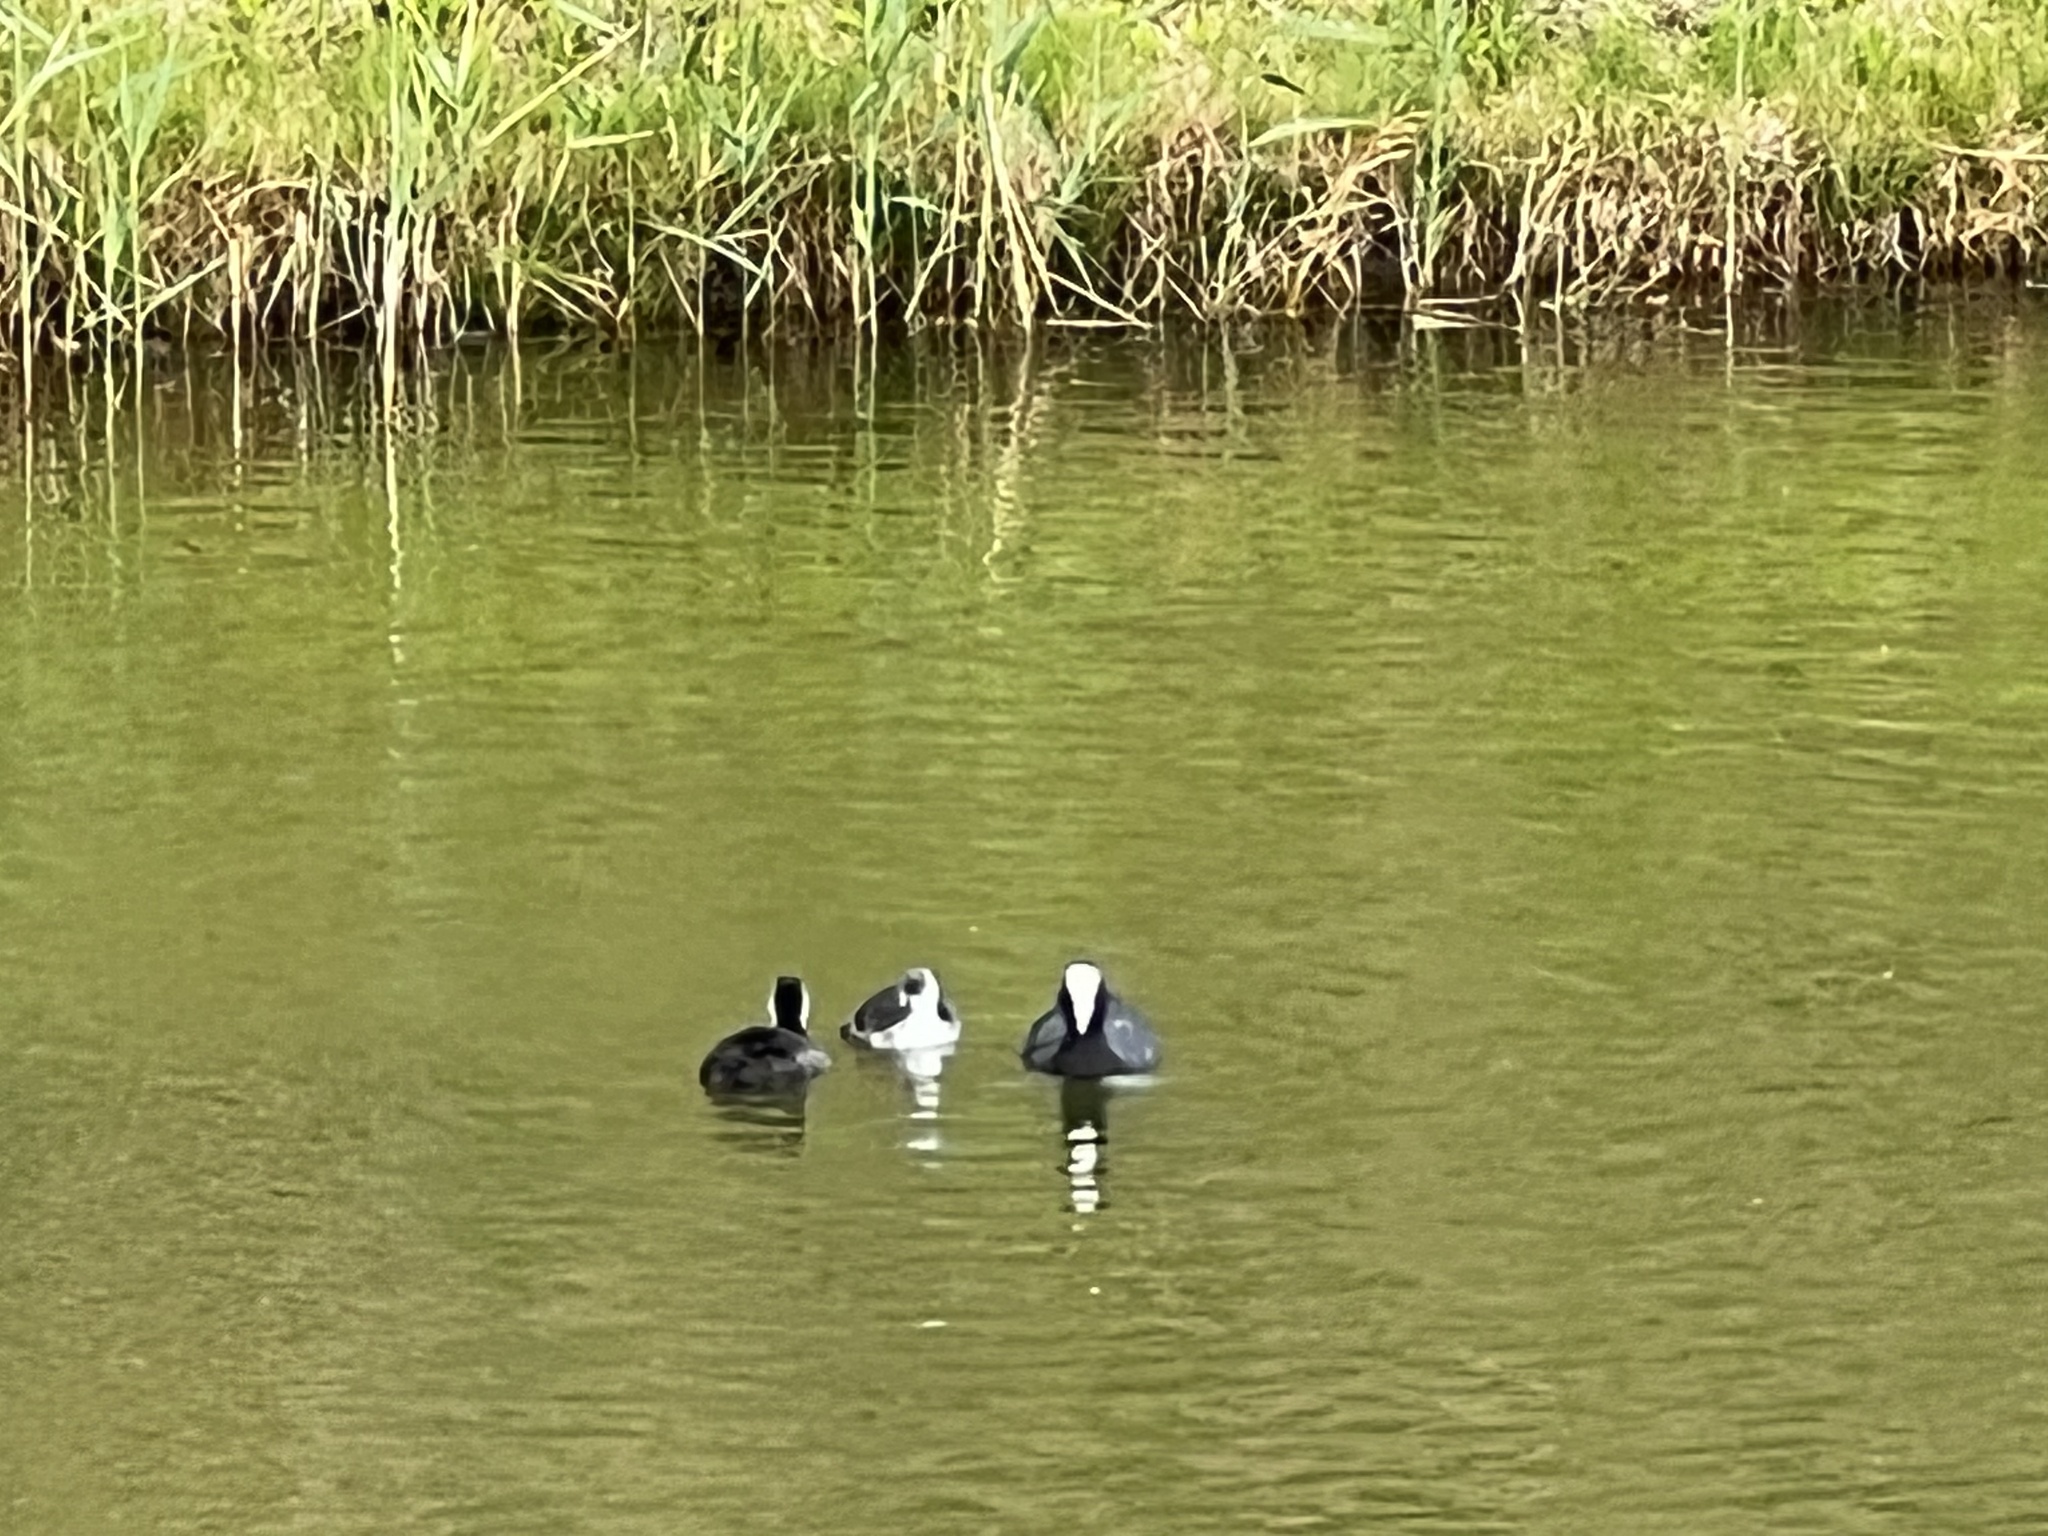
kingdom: Animalia
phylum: Chordata
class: Aves
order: Gruiformes
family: Rallidae
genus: Fulica
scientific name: Fulica atra
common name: Eurasian coot
